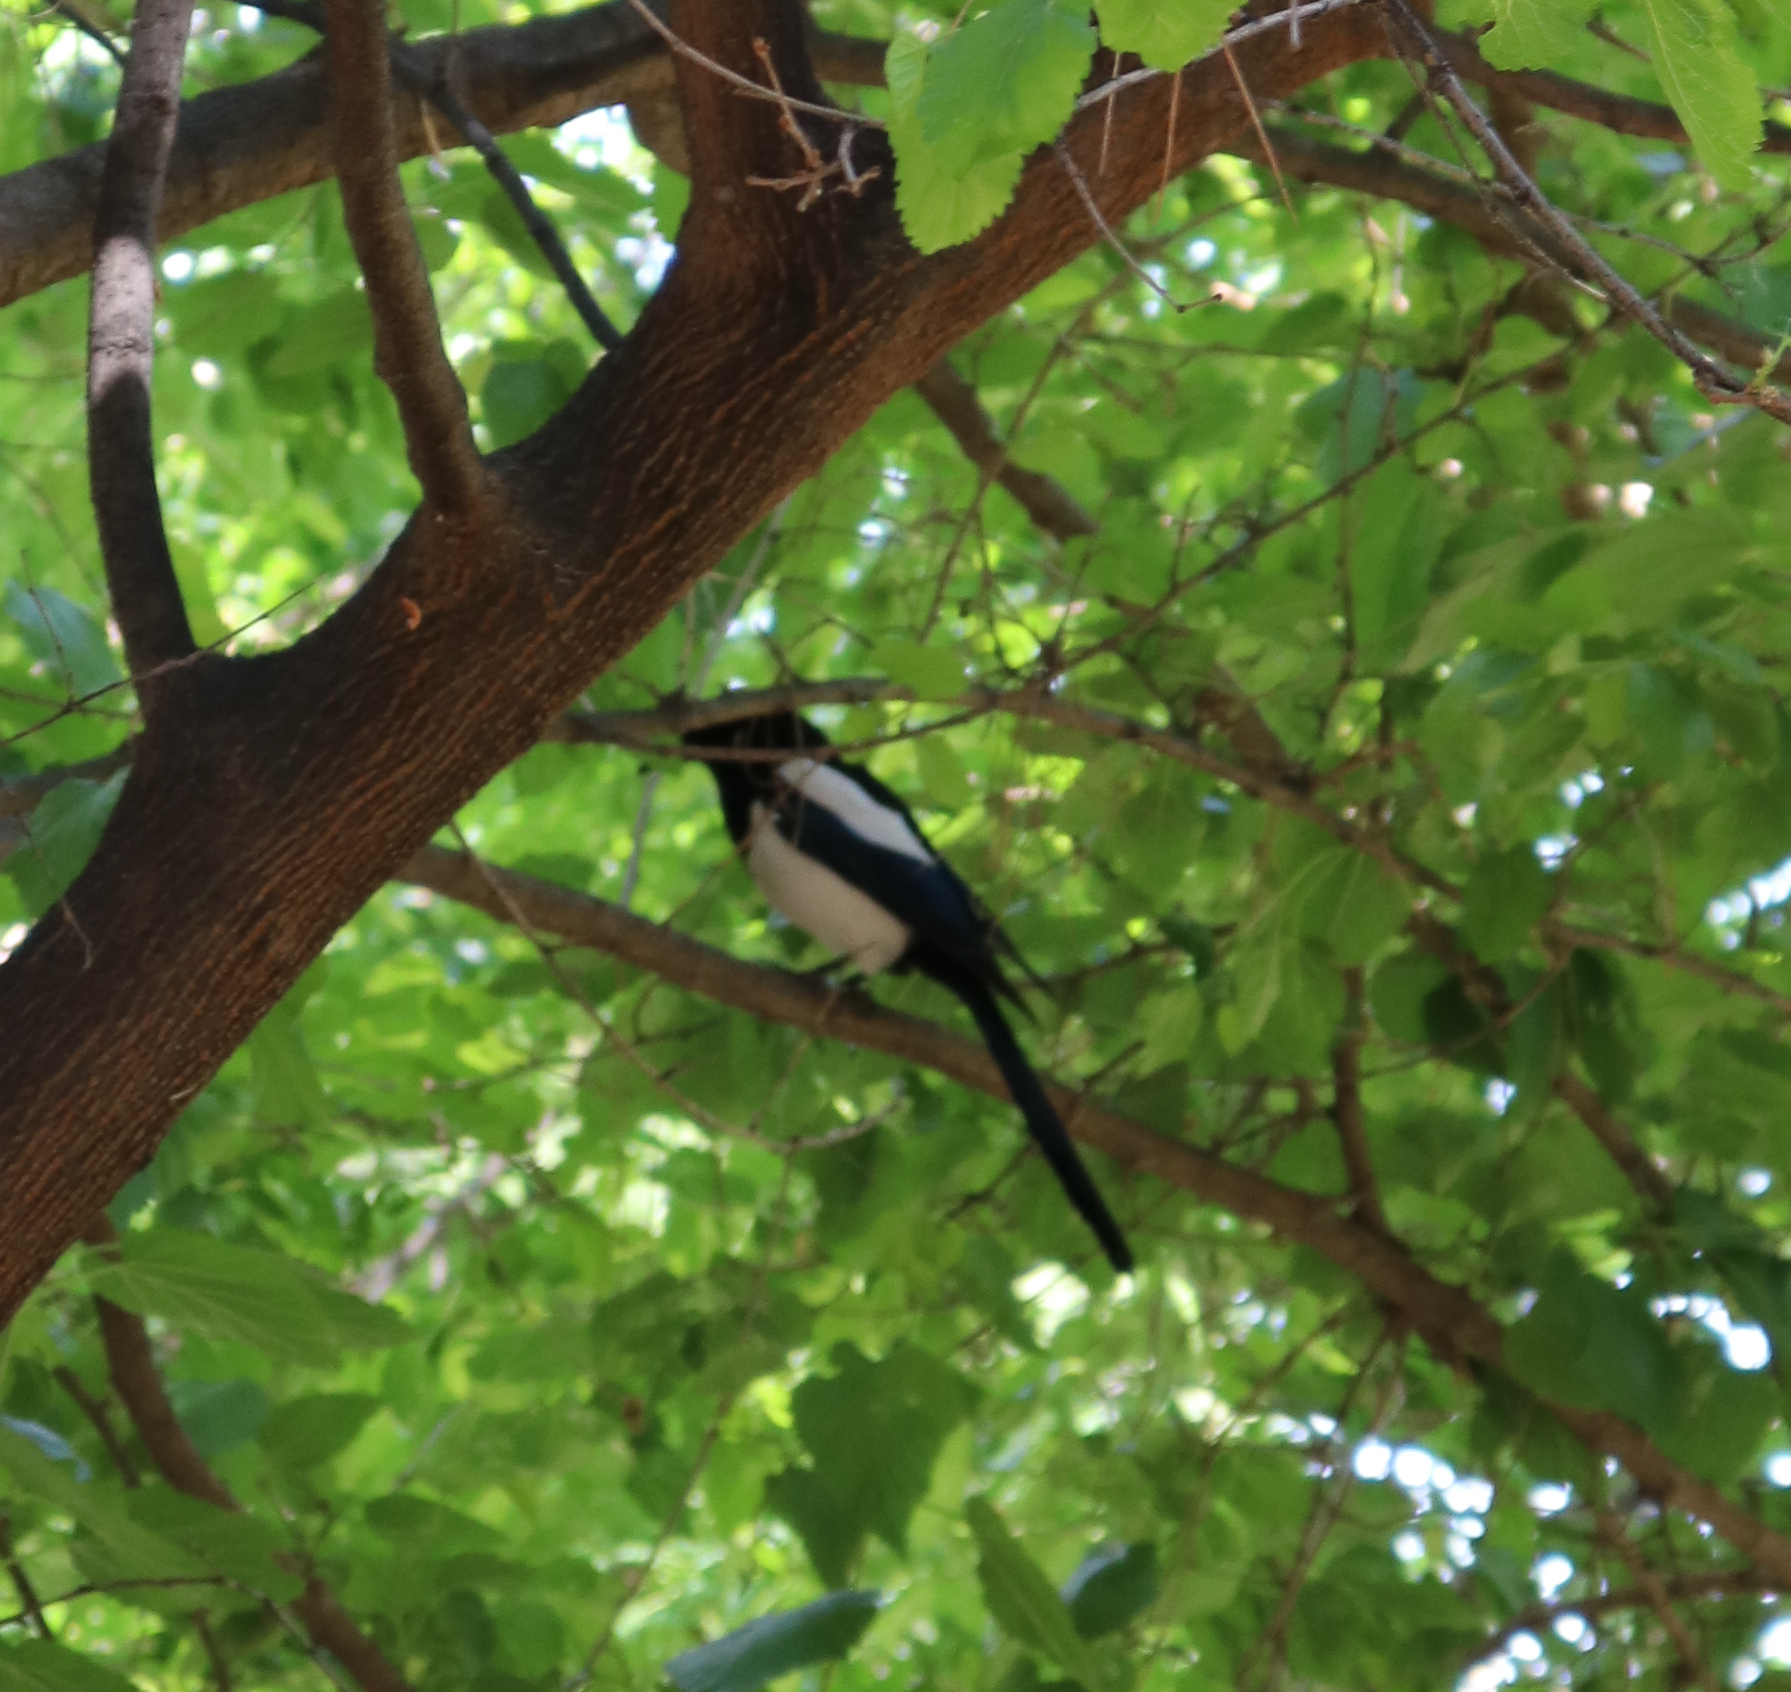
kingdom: Animalia
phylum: Chordata
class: Aves
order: Passeriformes
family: Corvidae
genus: Pica
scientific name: Pica pica
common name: Eurasian magpie
